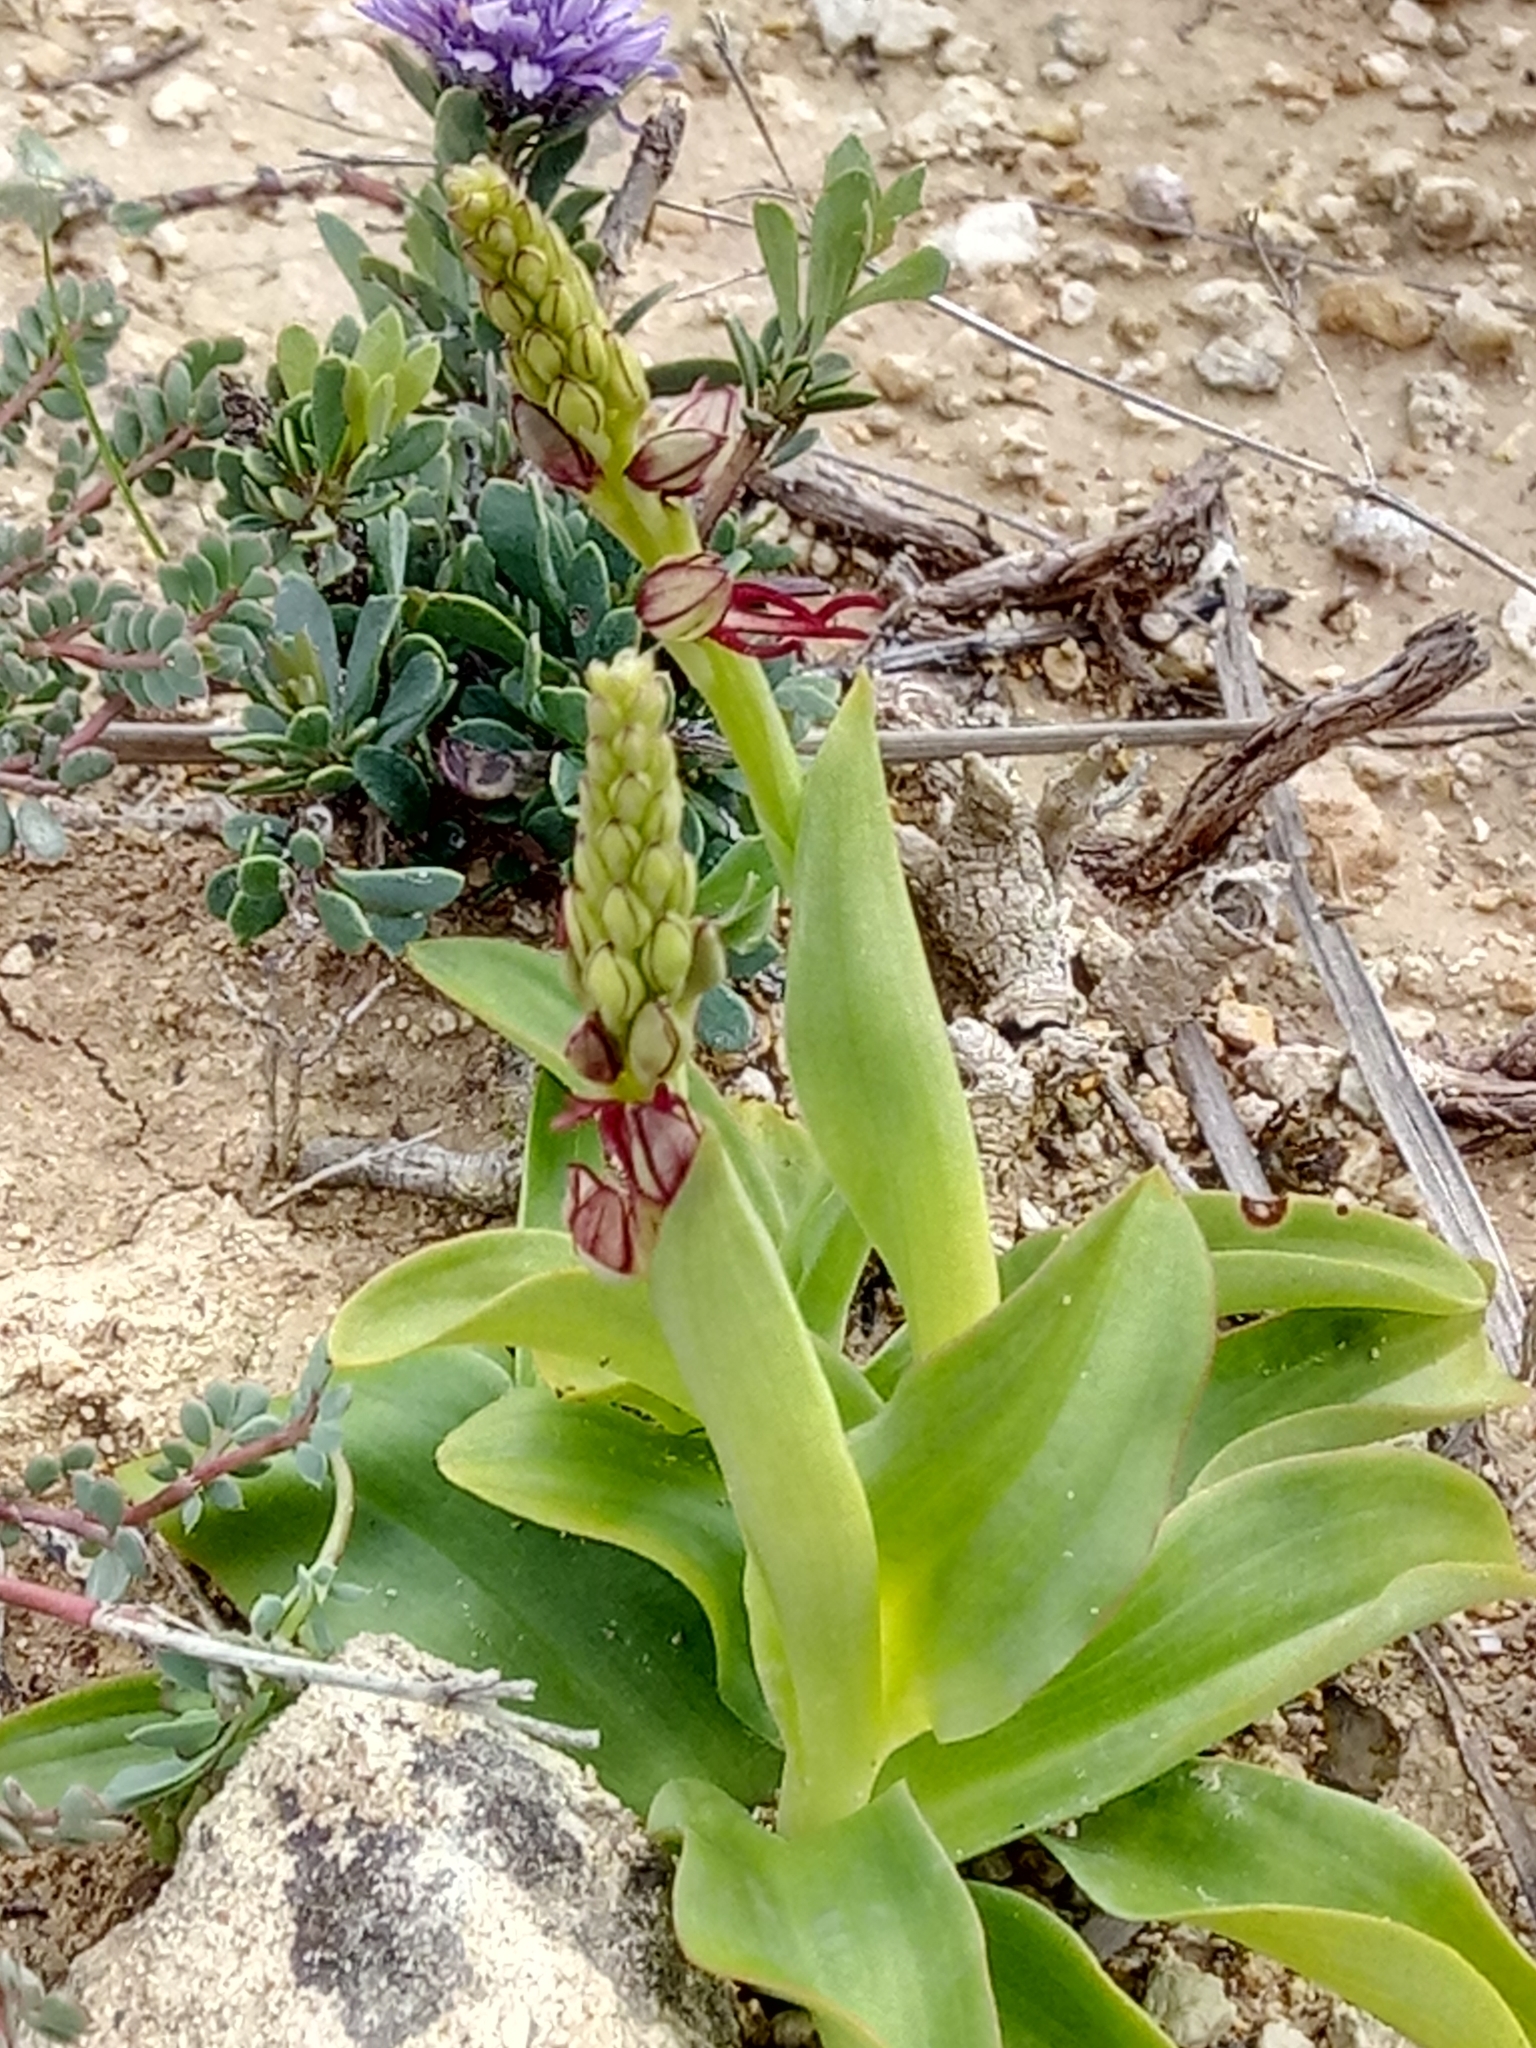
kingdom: Plantae
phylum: Tracheophyta
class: Liliopsida
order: Asparagales
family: Orchidaceae
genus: Orchis
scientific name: Orchis anthropophora
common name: Man orchid
